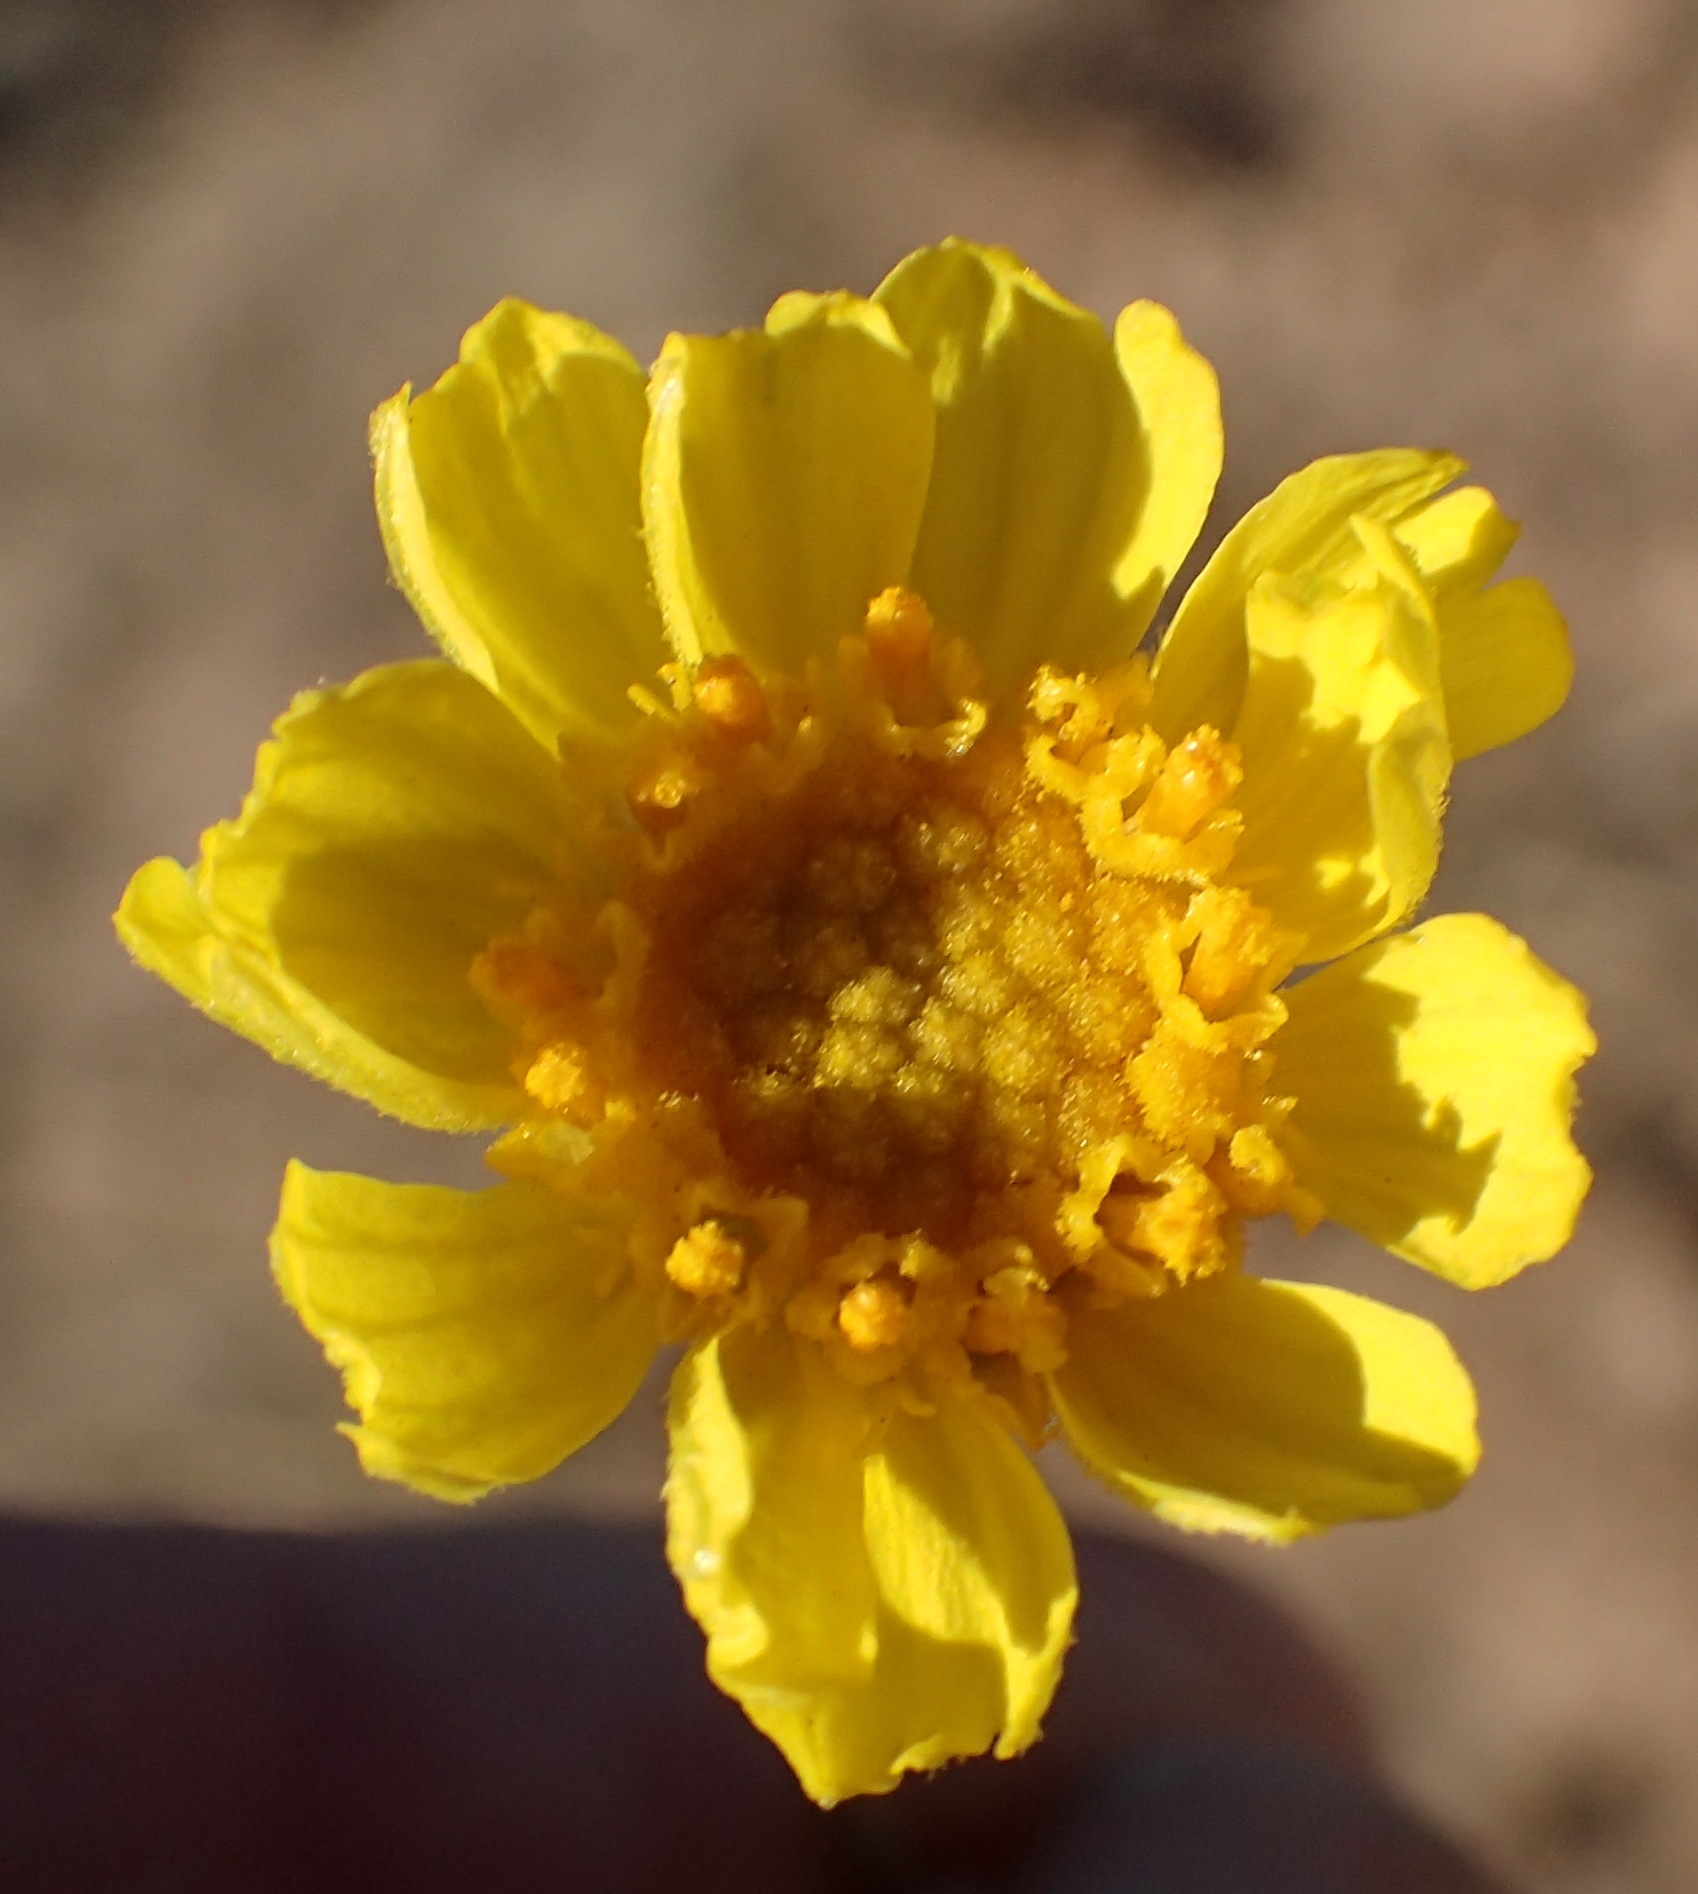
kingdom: Plantae
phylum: Tracheophyta
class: Magnoliopsida
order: Asterales
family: Asteraceae
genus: Tetraneuris
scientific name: Tetraneuris scaposa
